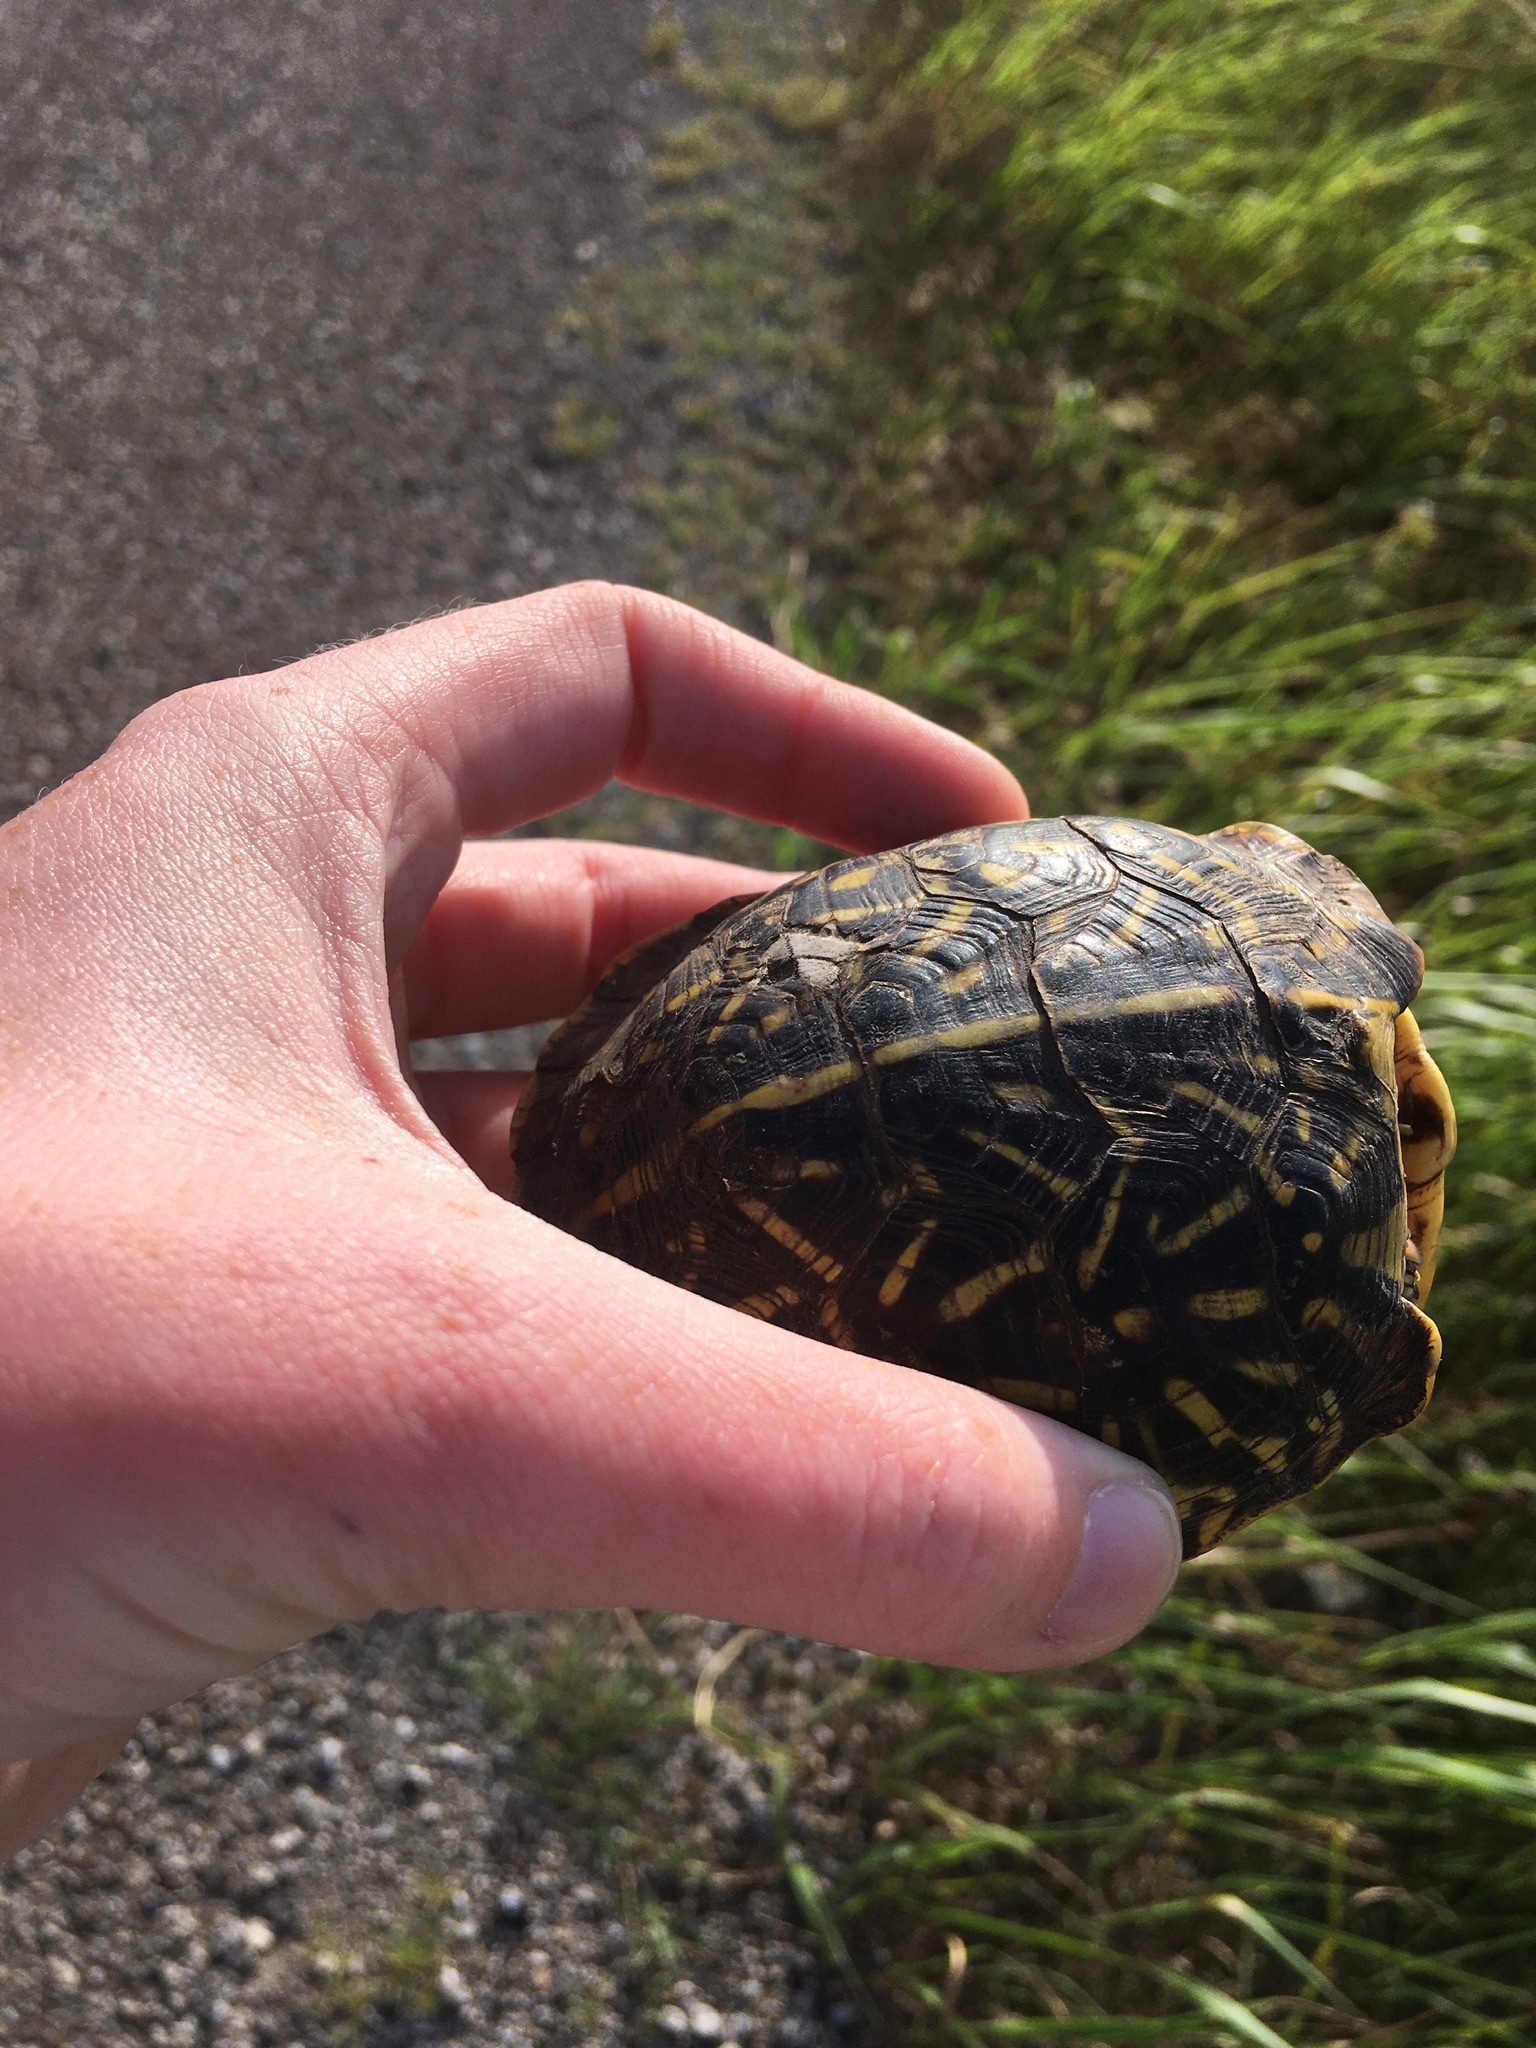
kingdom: Animalia
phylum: Chordata
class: Testudines
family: Emydidae
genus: Terrapene
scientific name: Terrapene ornata
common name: Western box turtle
